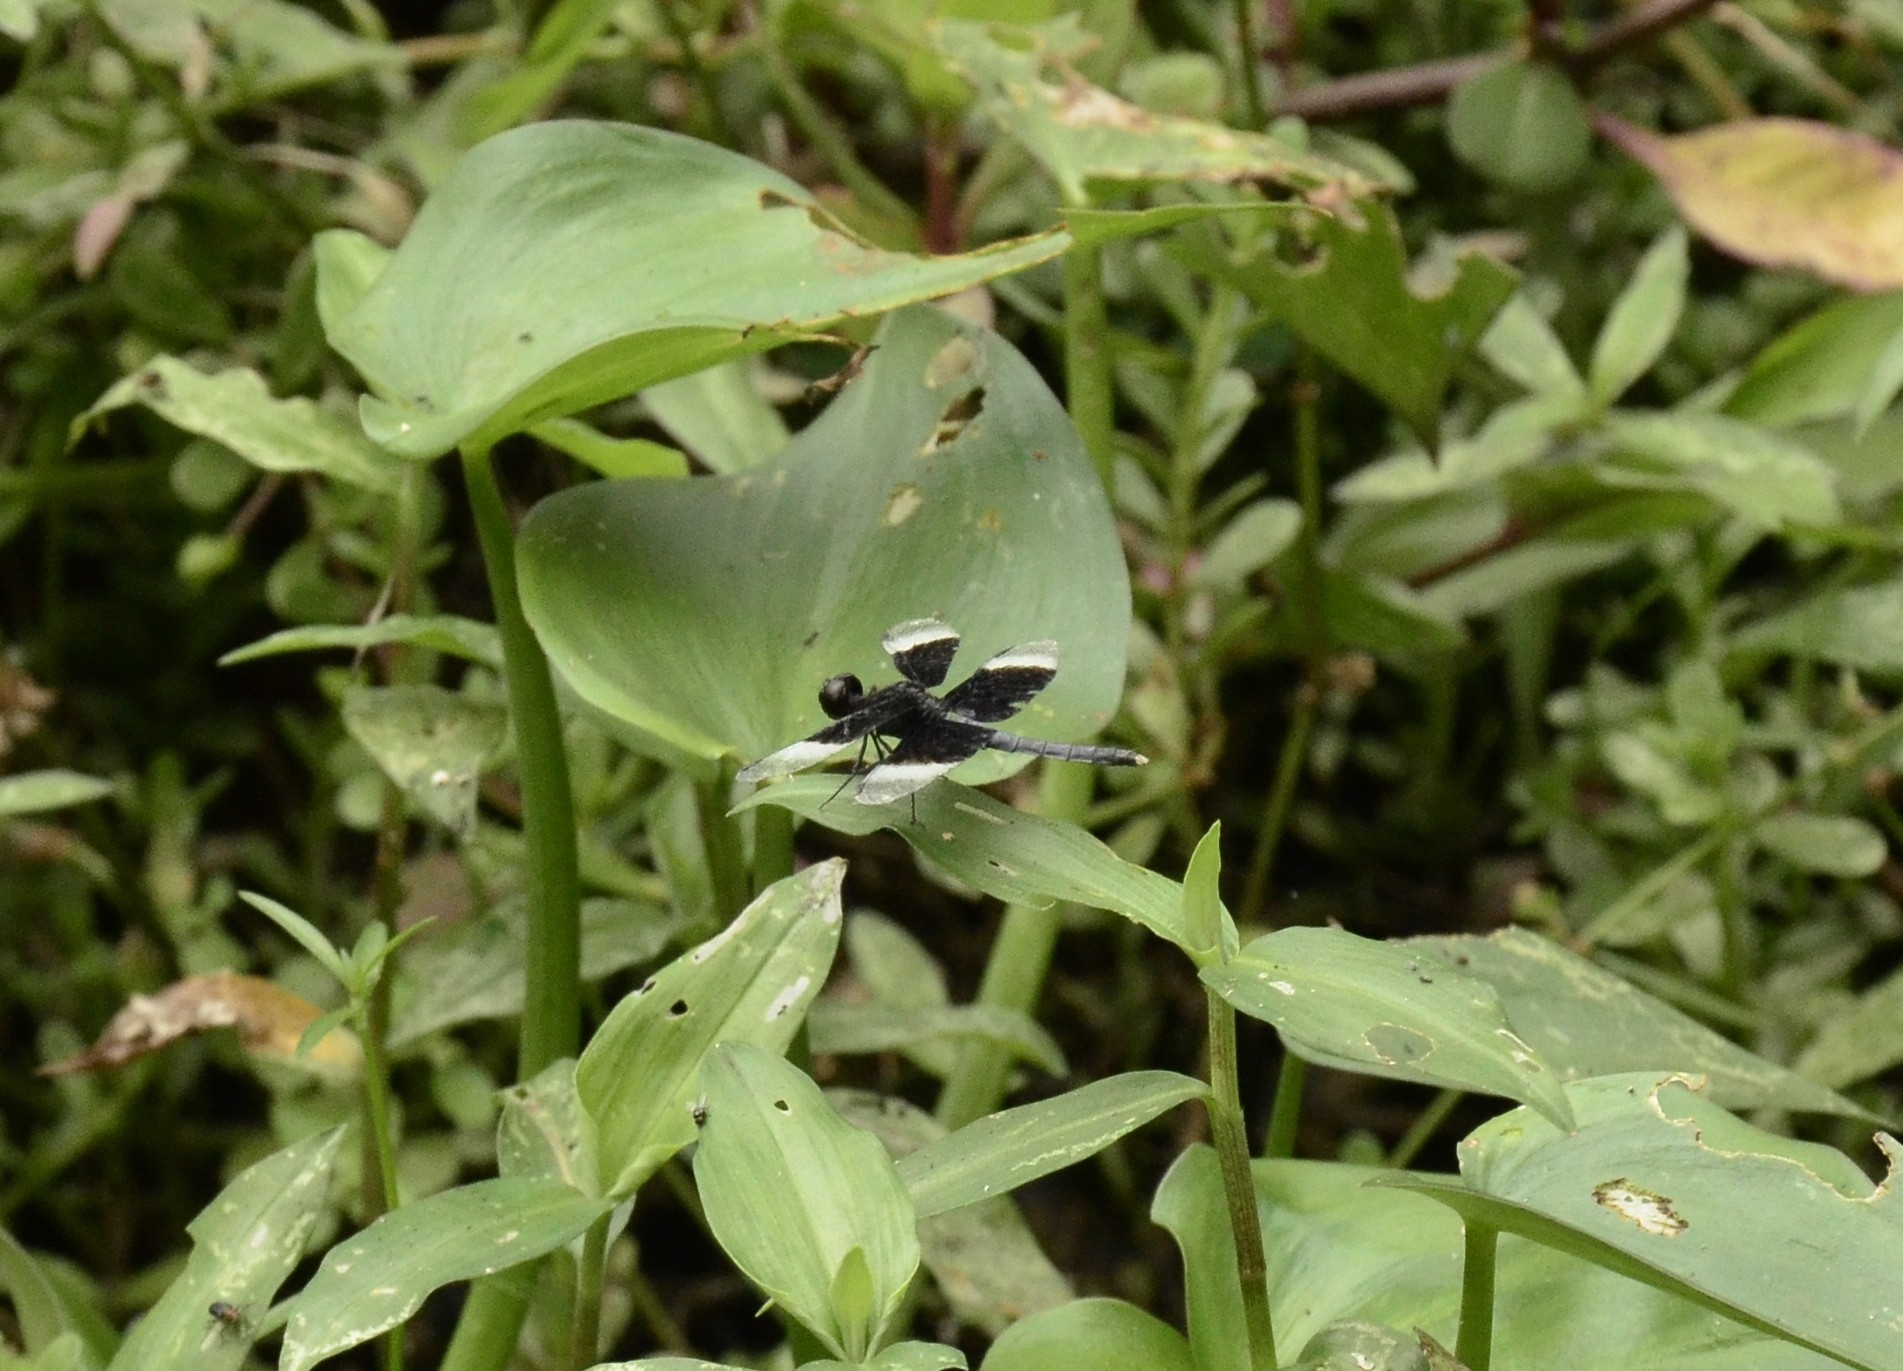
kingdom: Animalia
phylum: Arthropoda
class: Insecta
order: Odonata
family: Libellulidae
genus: Neurothemis
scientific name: Neurothemis tullia
